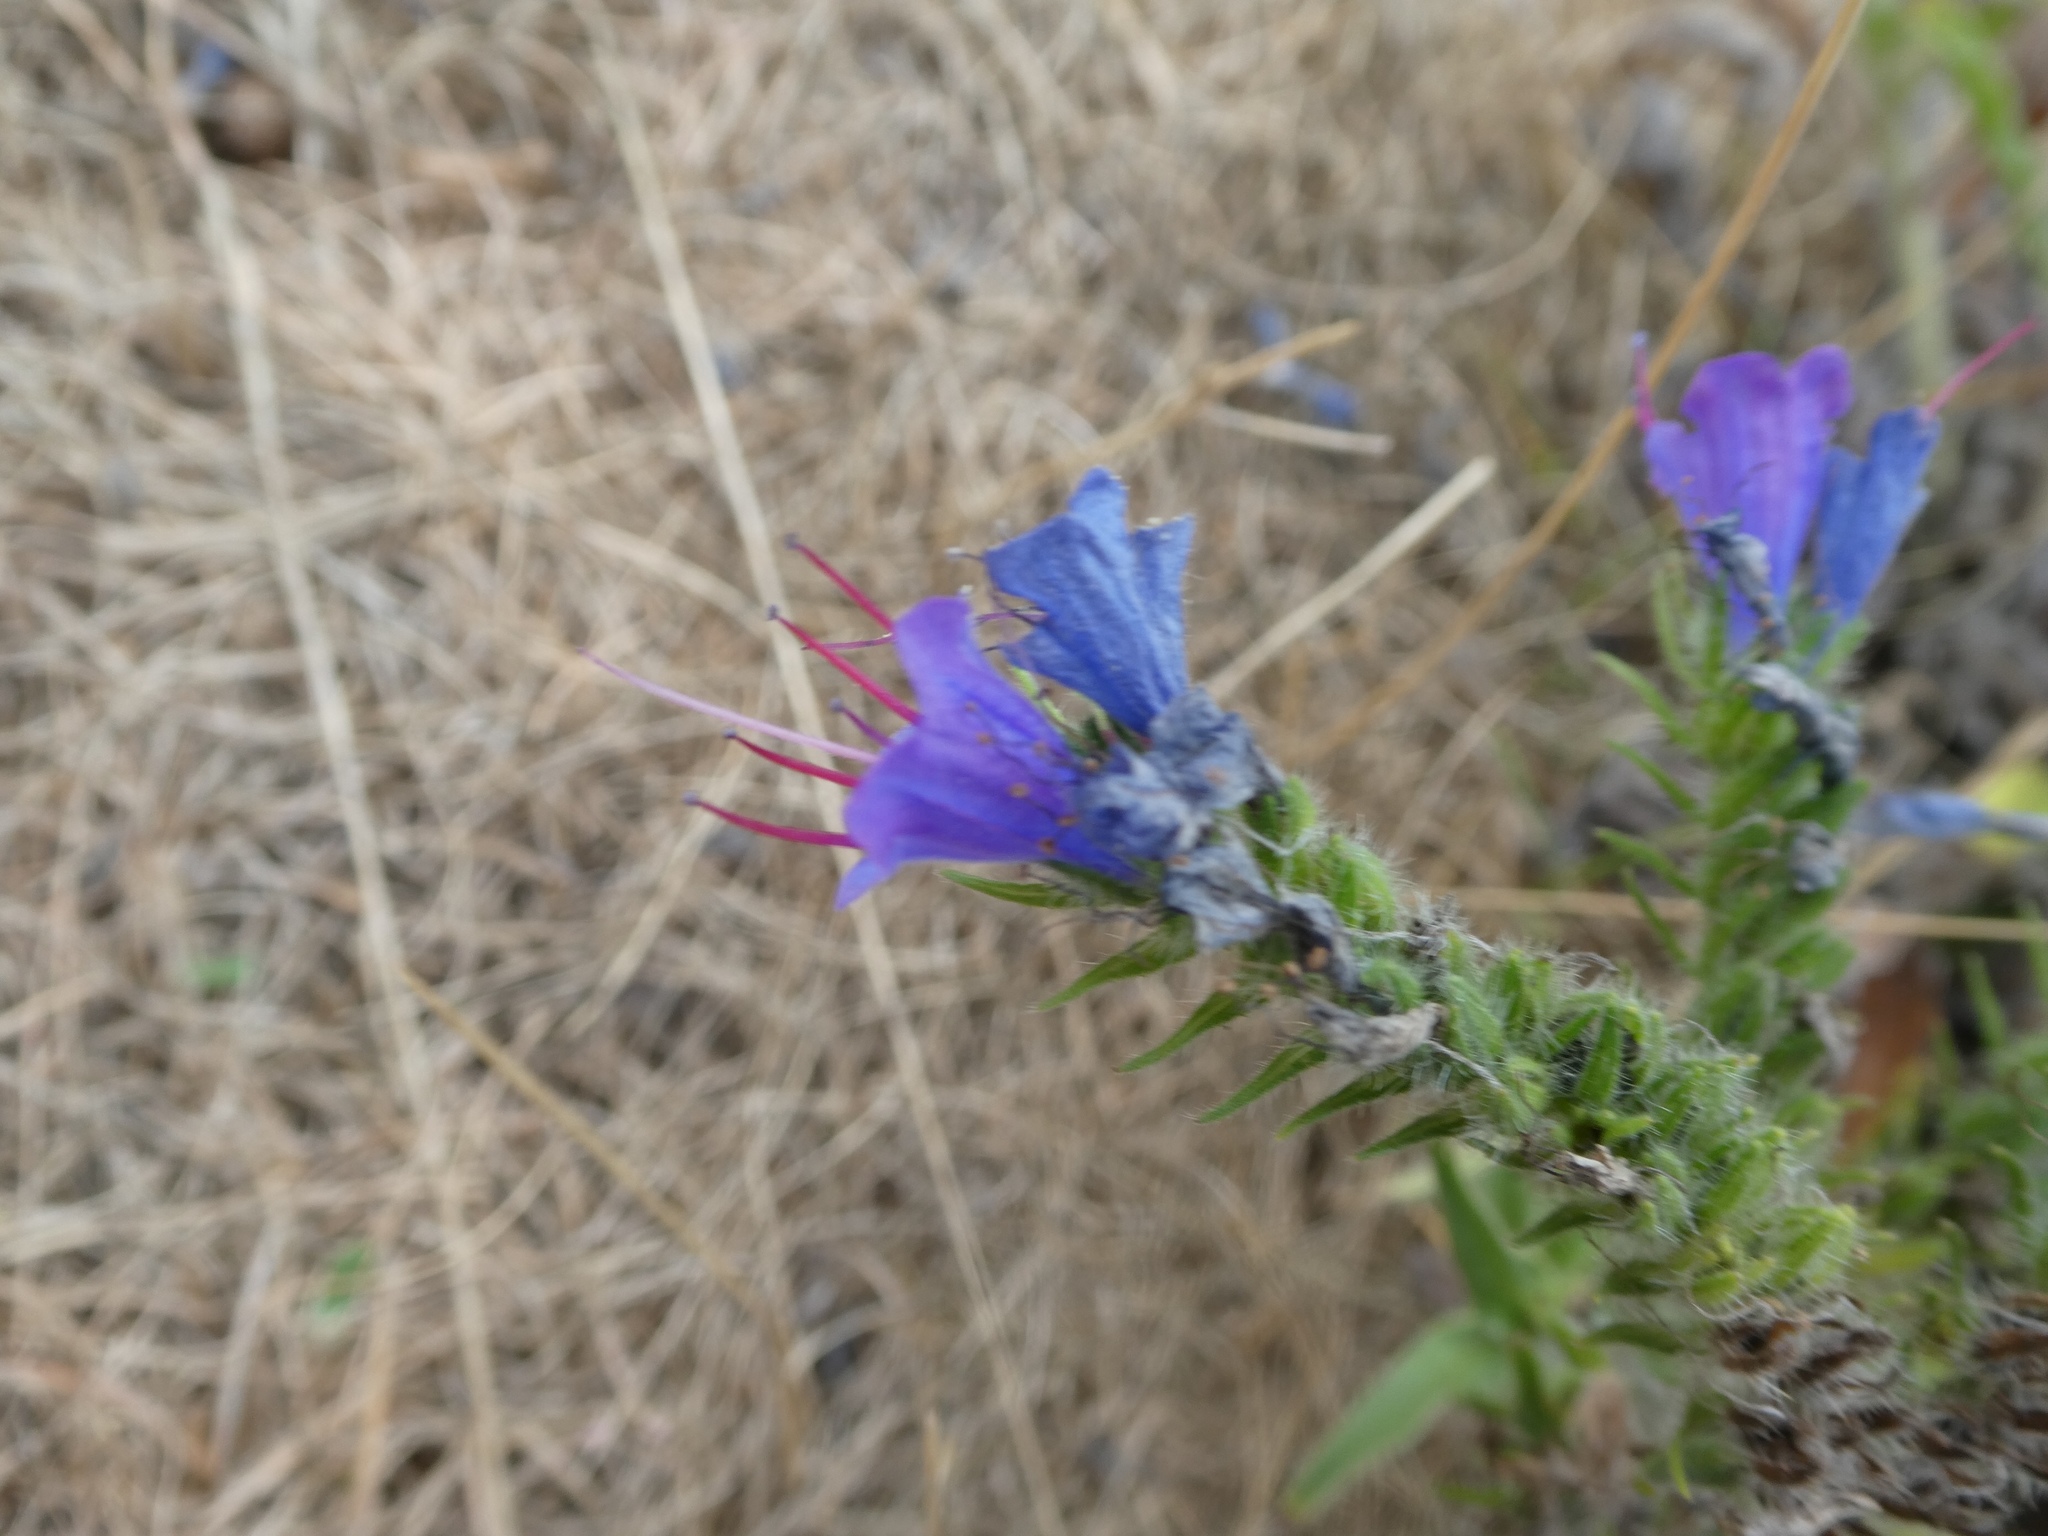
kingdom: Plantae
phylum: Tracheophyta
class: Magnoliopsida
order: Boraginales
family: Boraginaceae
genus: Echium
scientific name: Echium vulgare
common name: Common viper's bugloss
